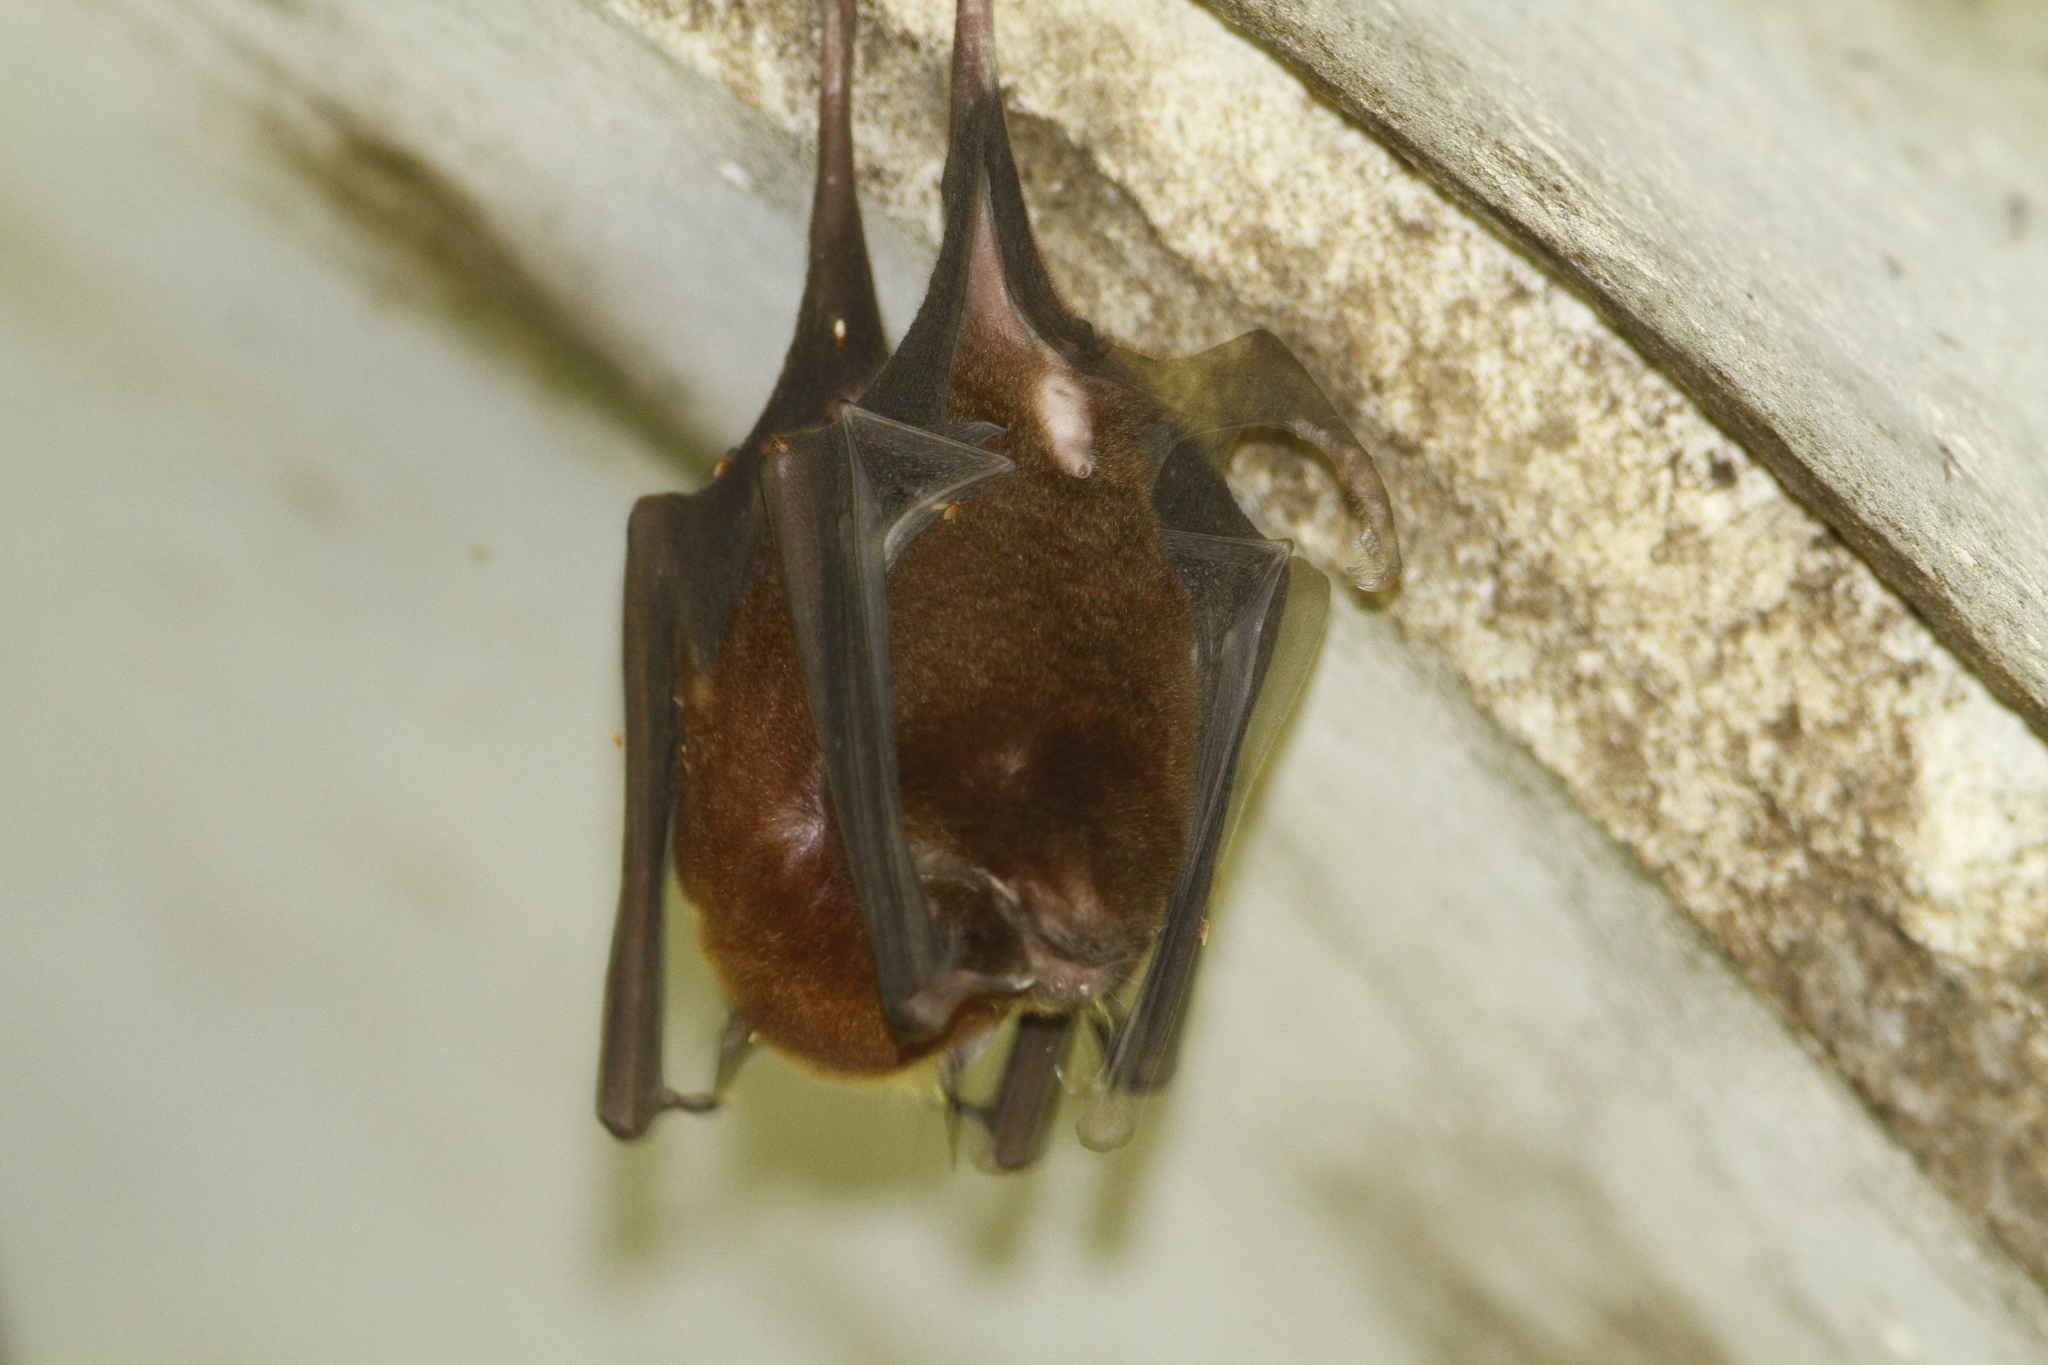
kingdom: Animalia
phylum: Chordata
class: Mammalia
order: Chiroptera
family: Mormoopidae
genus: Pteronotus
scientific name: Pteronotus
